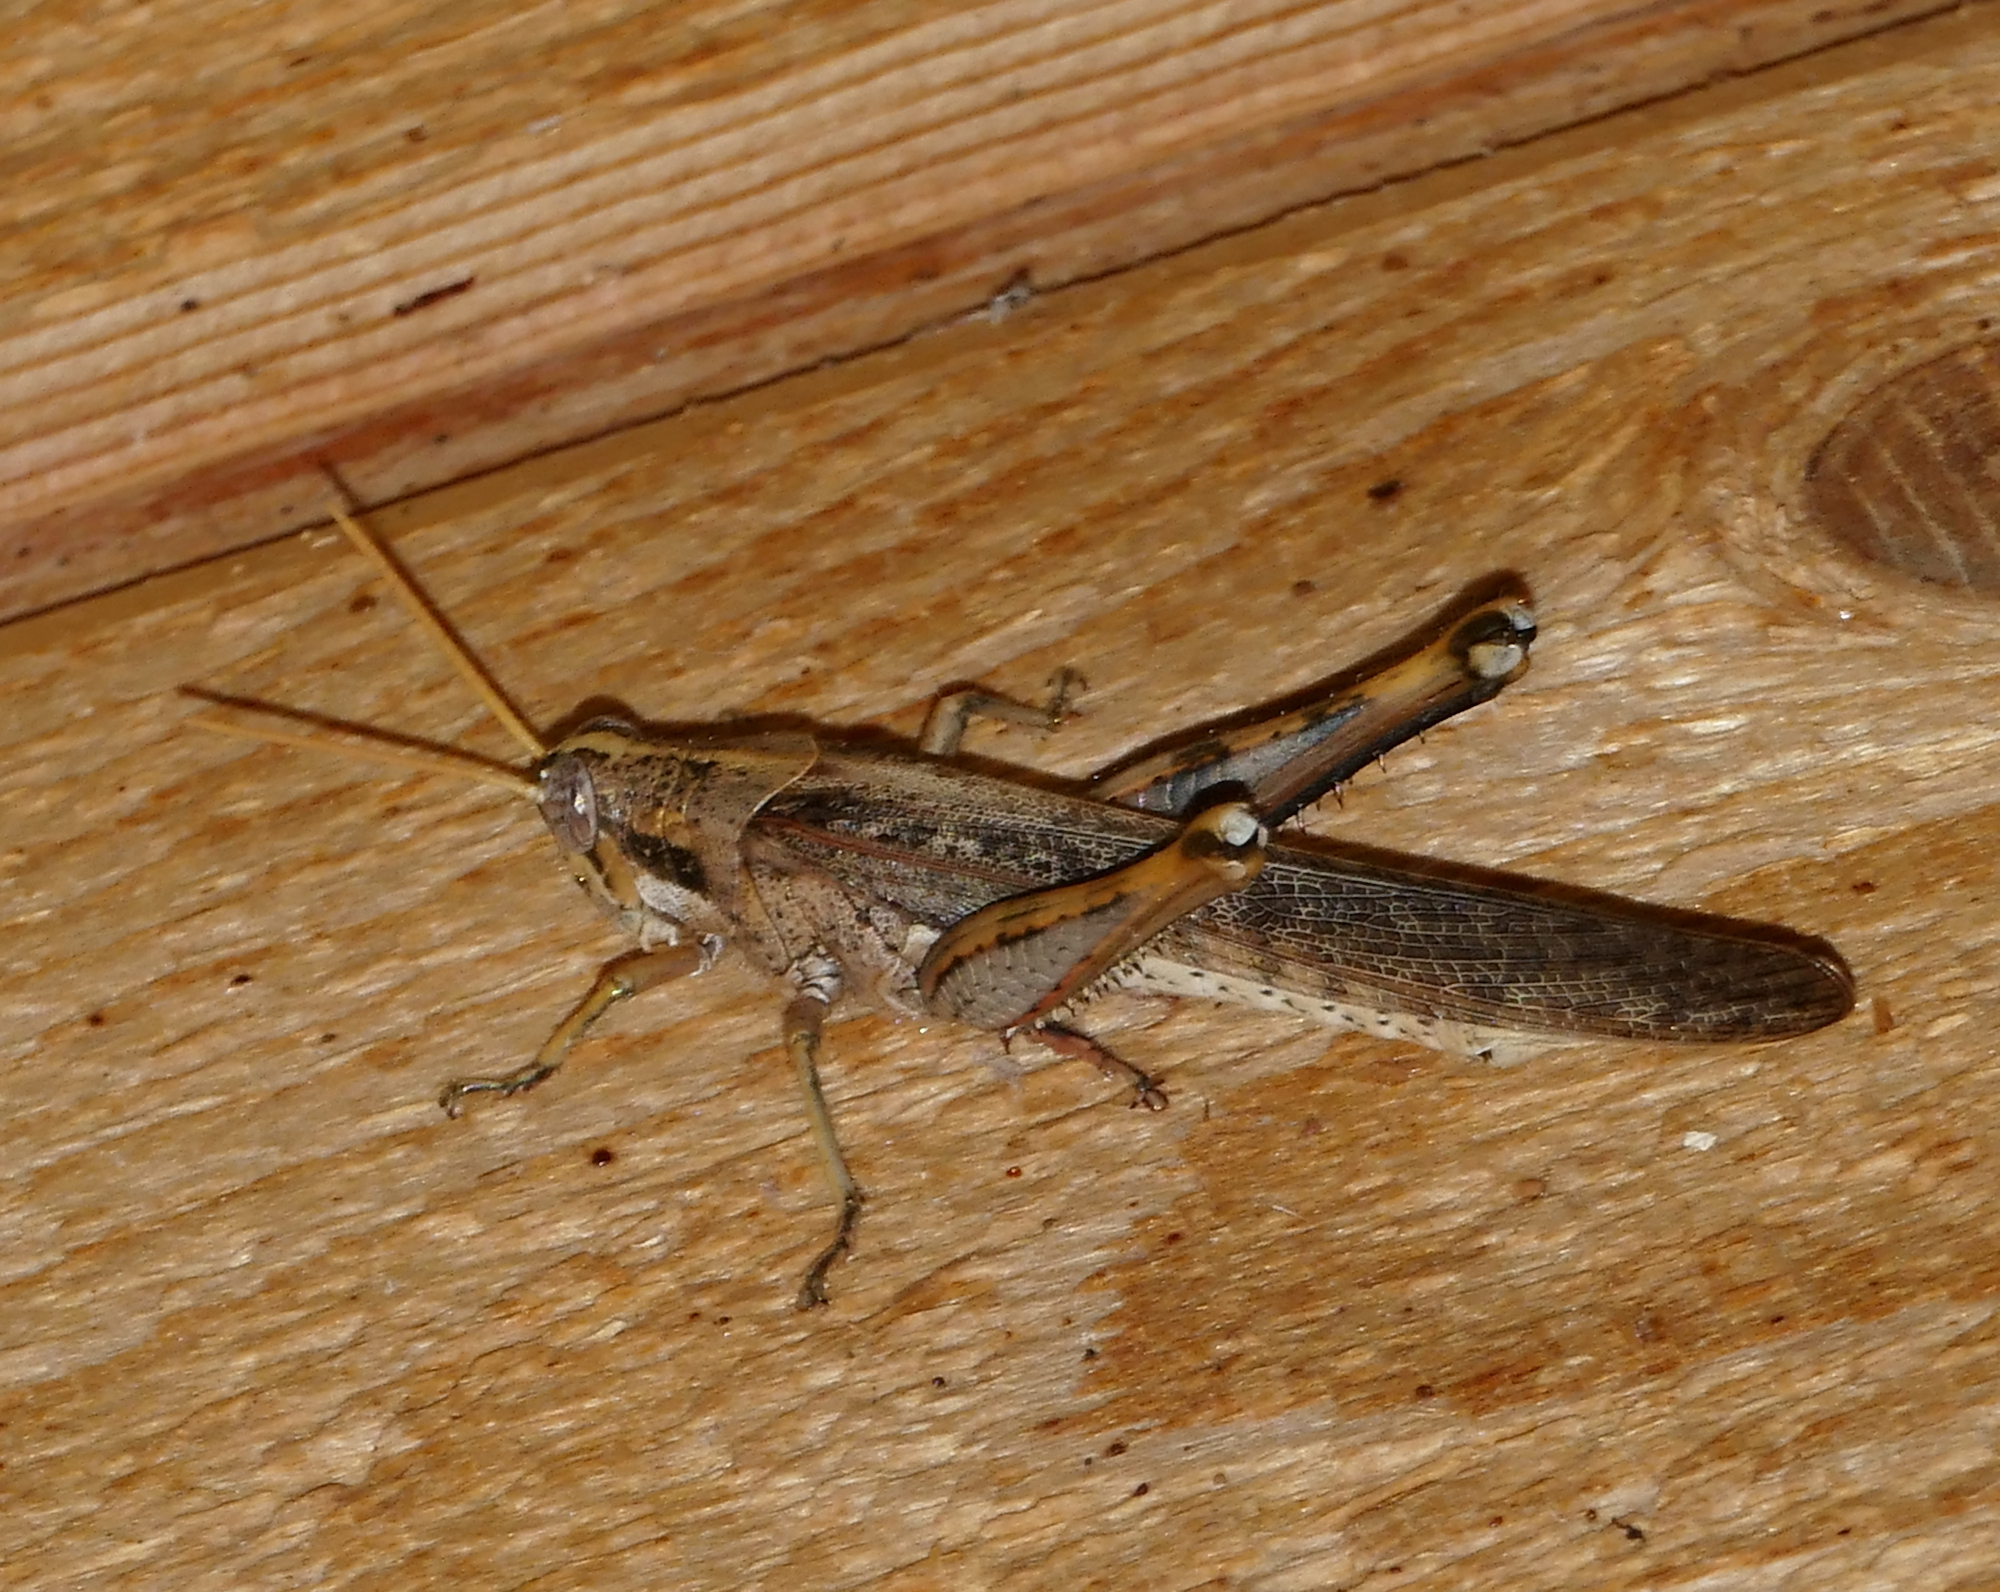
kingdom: Animalia
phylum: Arthropoda
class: Insecta
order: Orthoptera
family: Acrididae
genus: Schistocerca
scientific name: Schistocerca nitens
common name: Vagrant grasshopper
